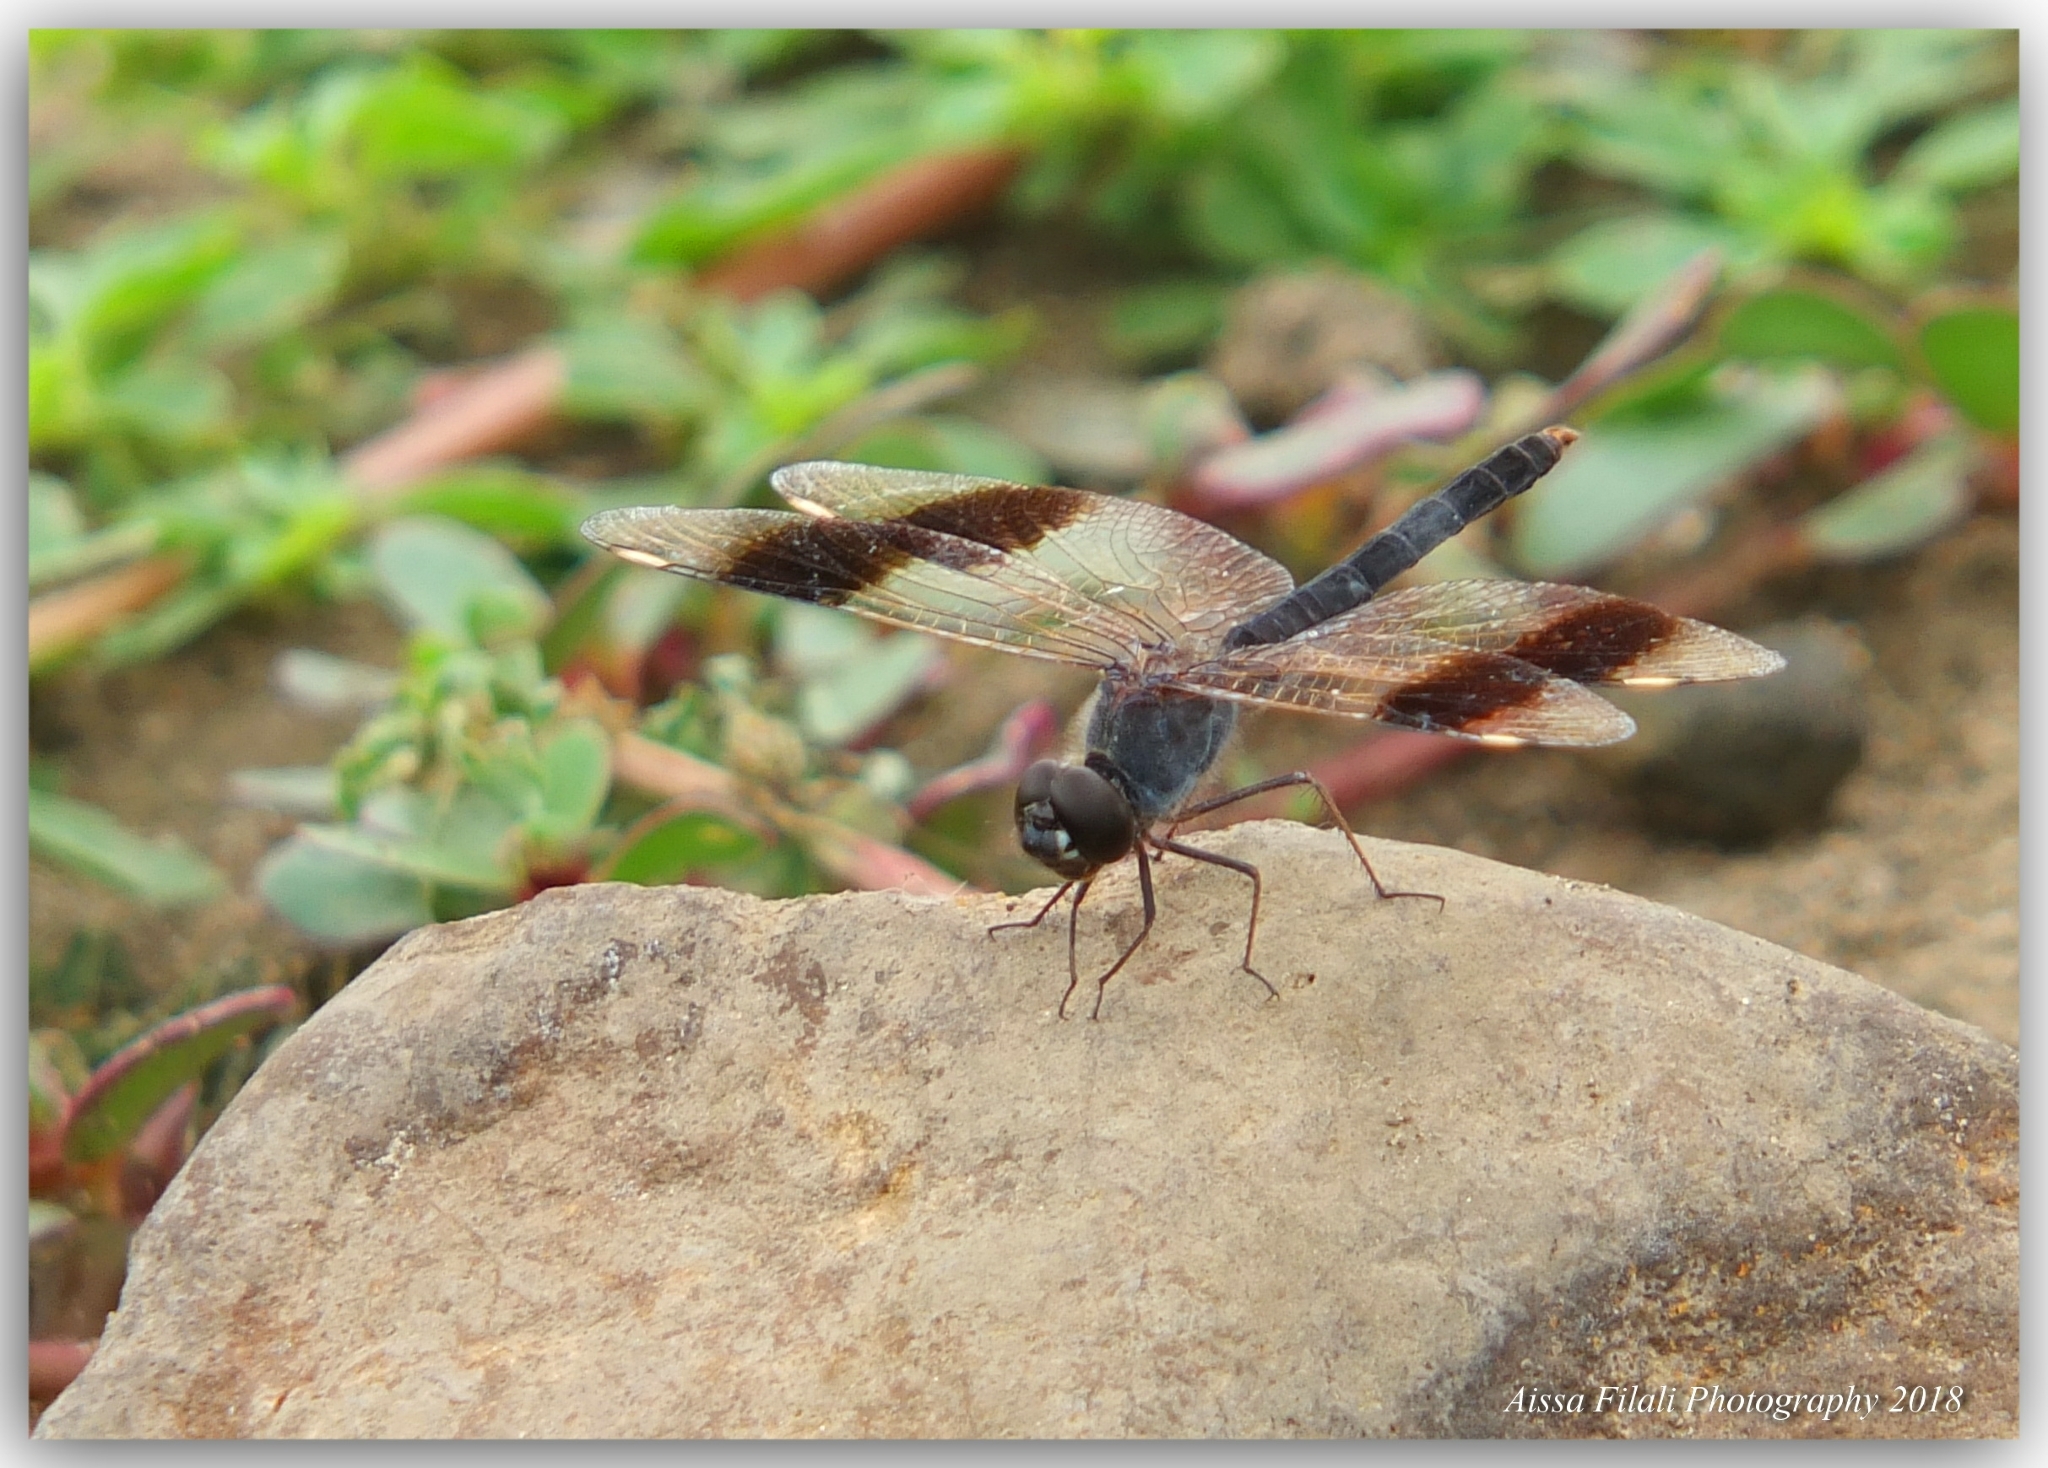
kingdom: Animalia
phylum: Arthropoda
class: Insecta
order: Odonata
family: Libellulidae
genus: Brachythemis
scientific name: Brachythemis impartita
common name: Banded groundling
